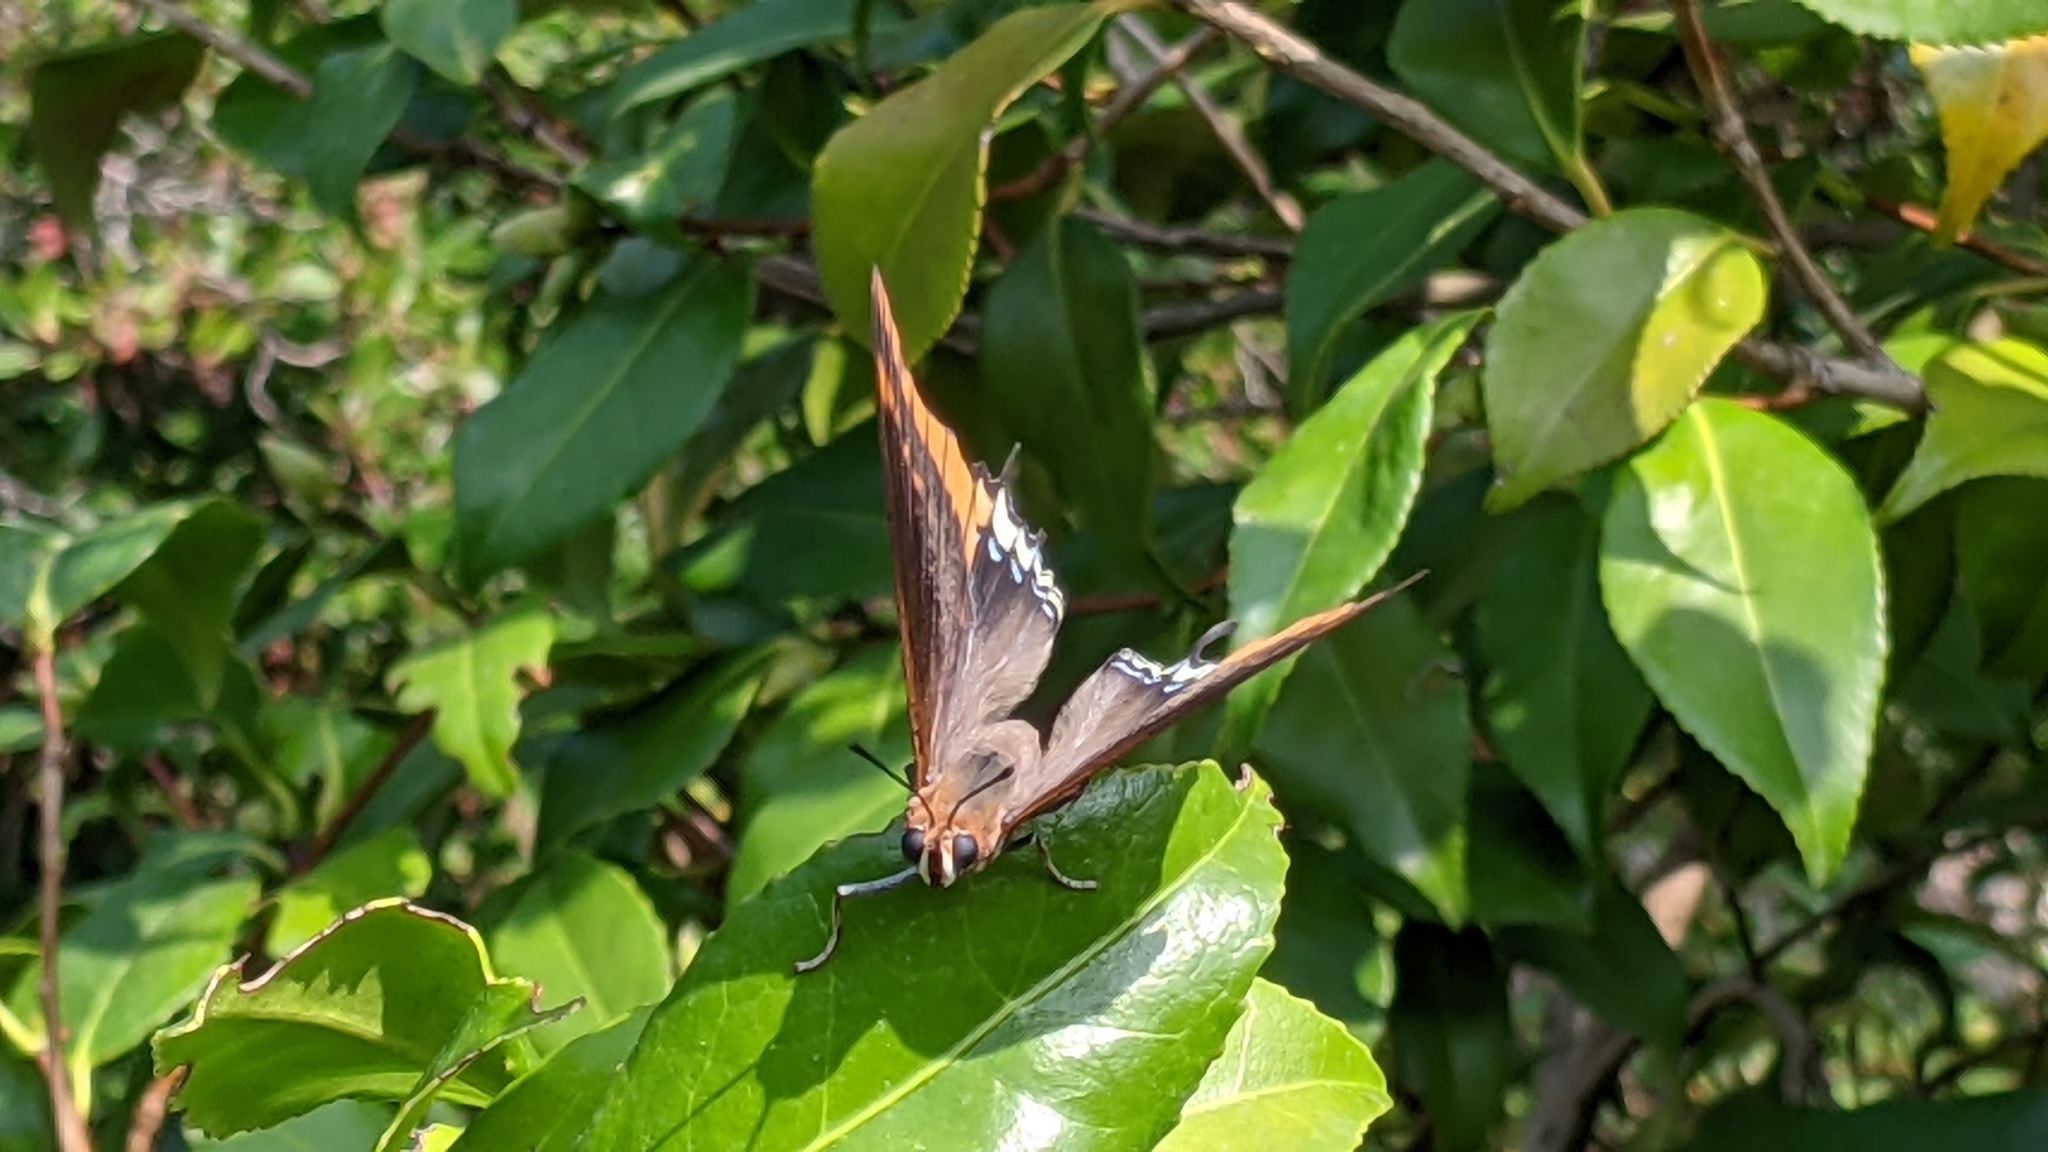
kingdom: Animalia
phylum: Arthropoda
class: Insecta
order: Lepidoptera
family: Nymphalidae
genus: Charaxes
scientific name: Charaxes jasius
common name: Two tailed pasha
